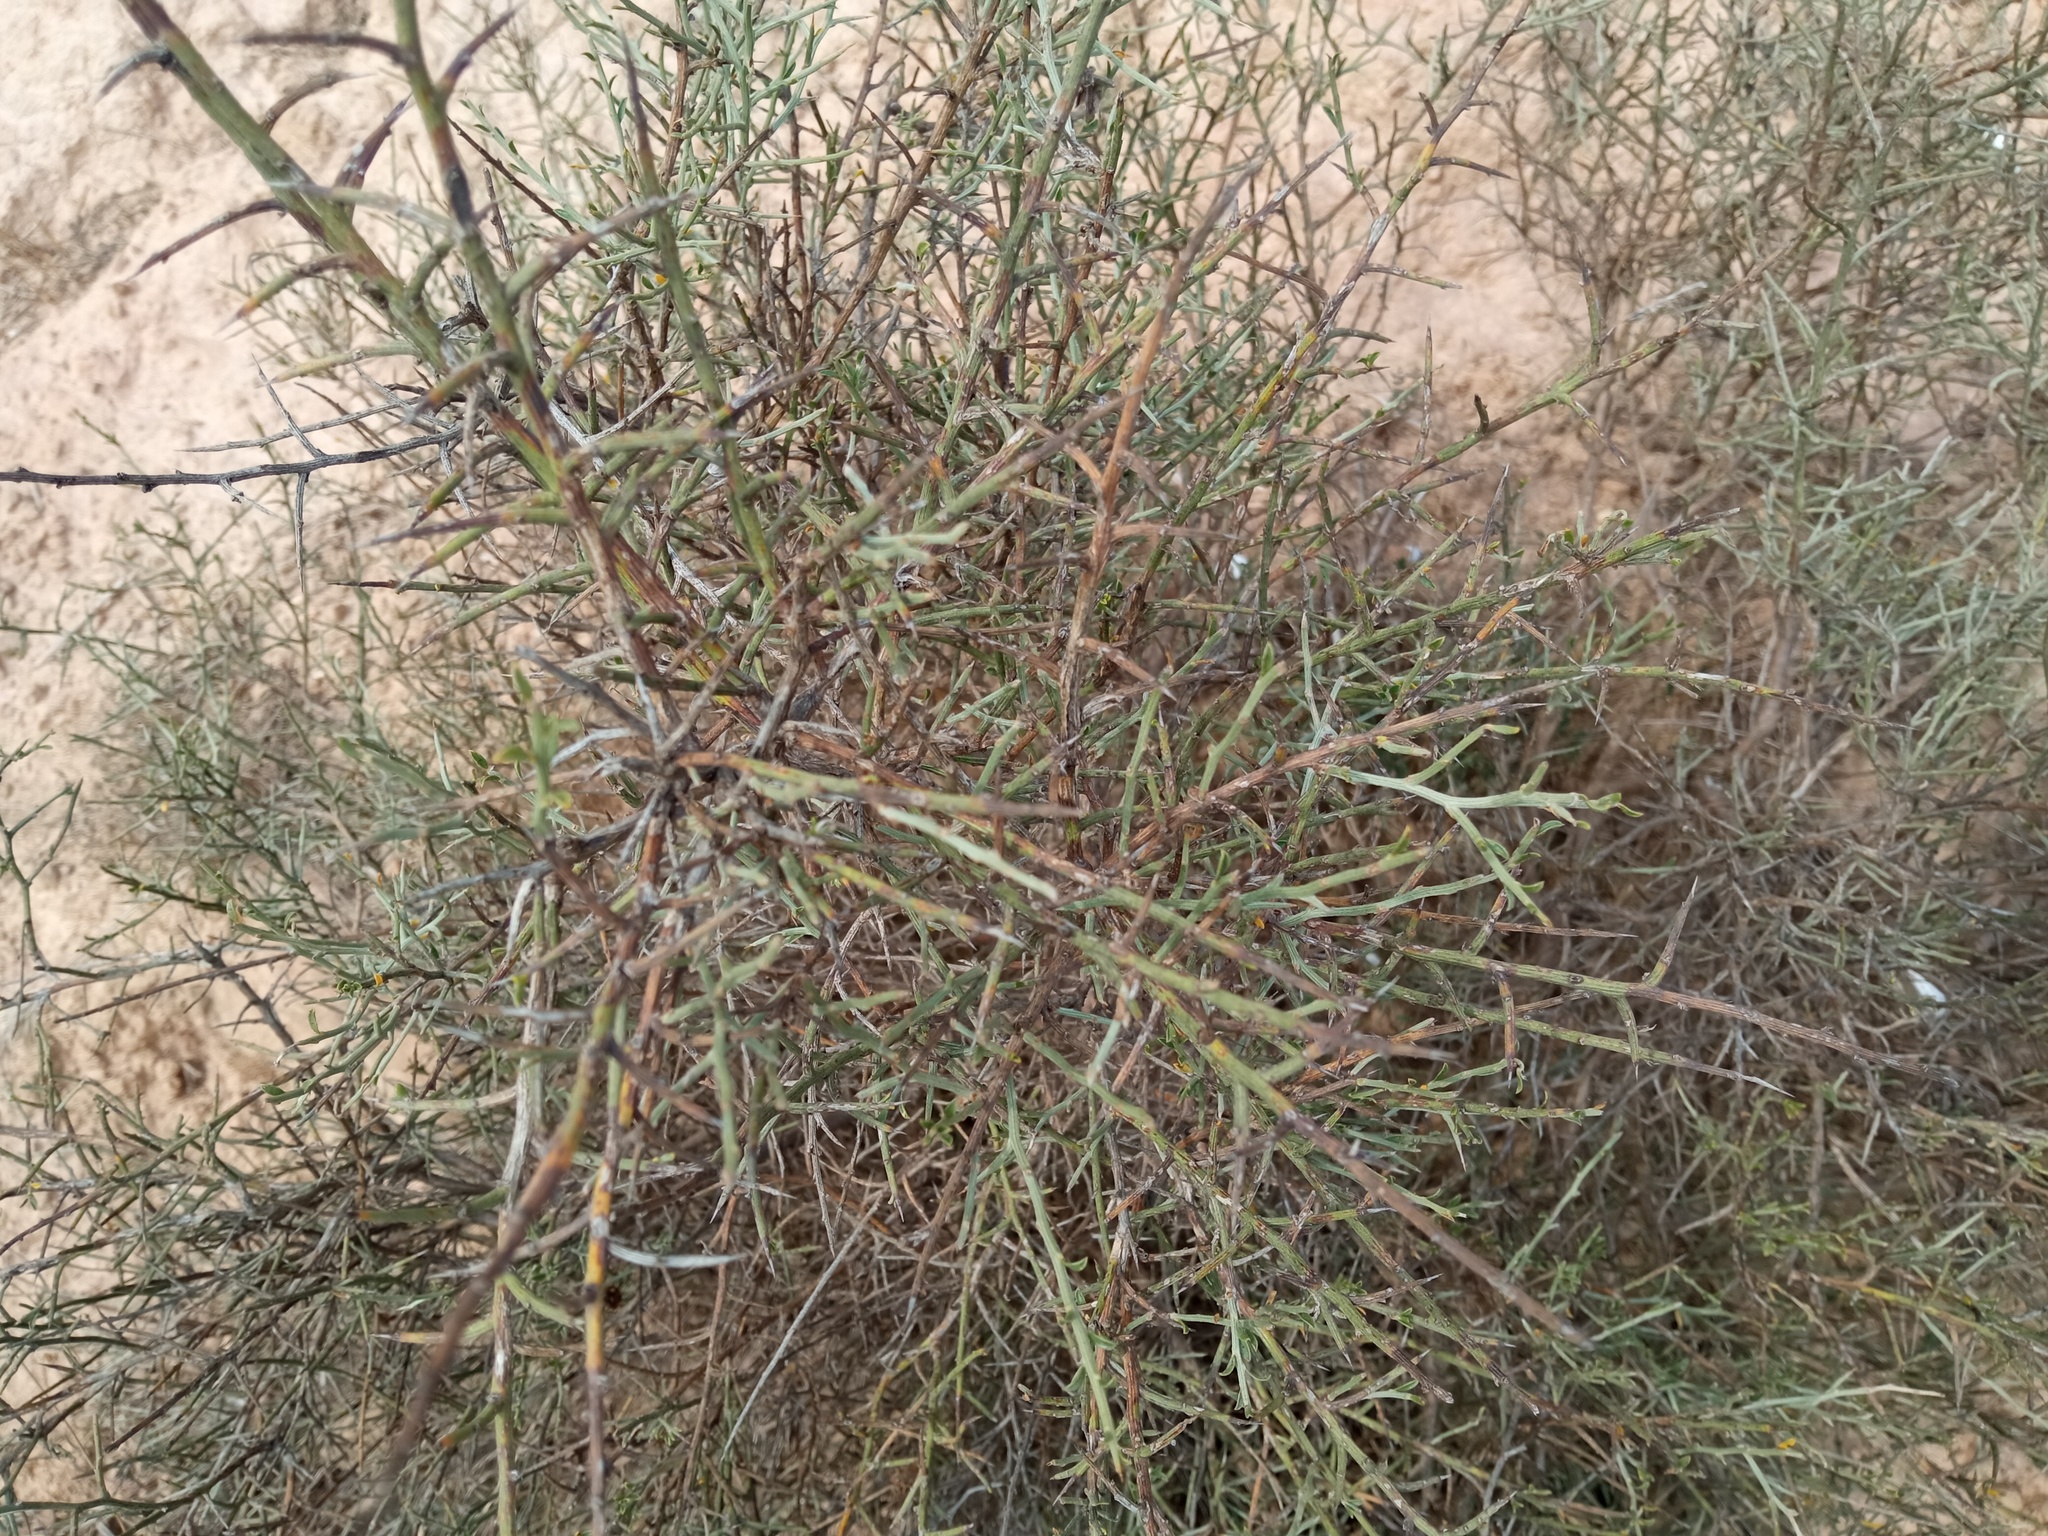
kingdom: Plantae
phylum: Tracheophyta
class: Magnoliopsida
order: Fabales
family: Fabaceae
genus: Genista
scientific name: Genista scorpius
